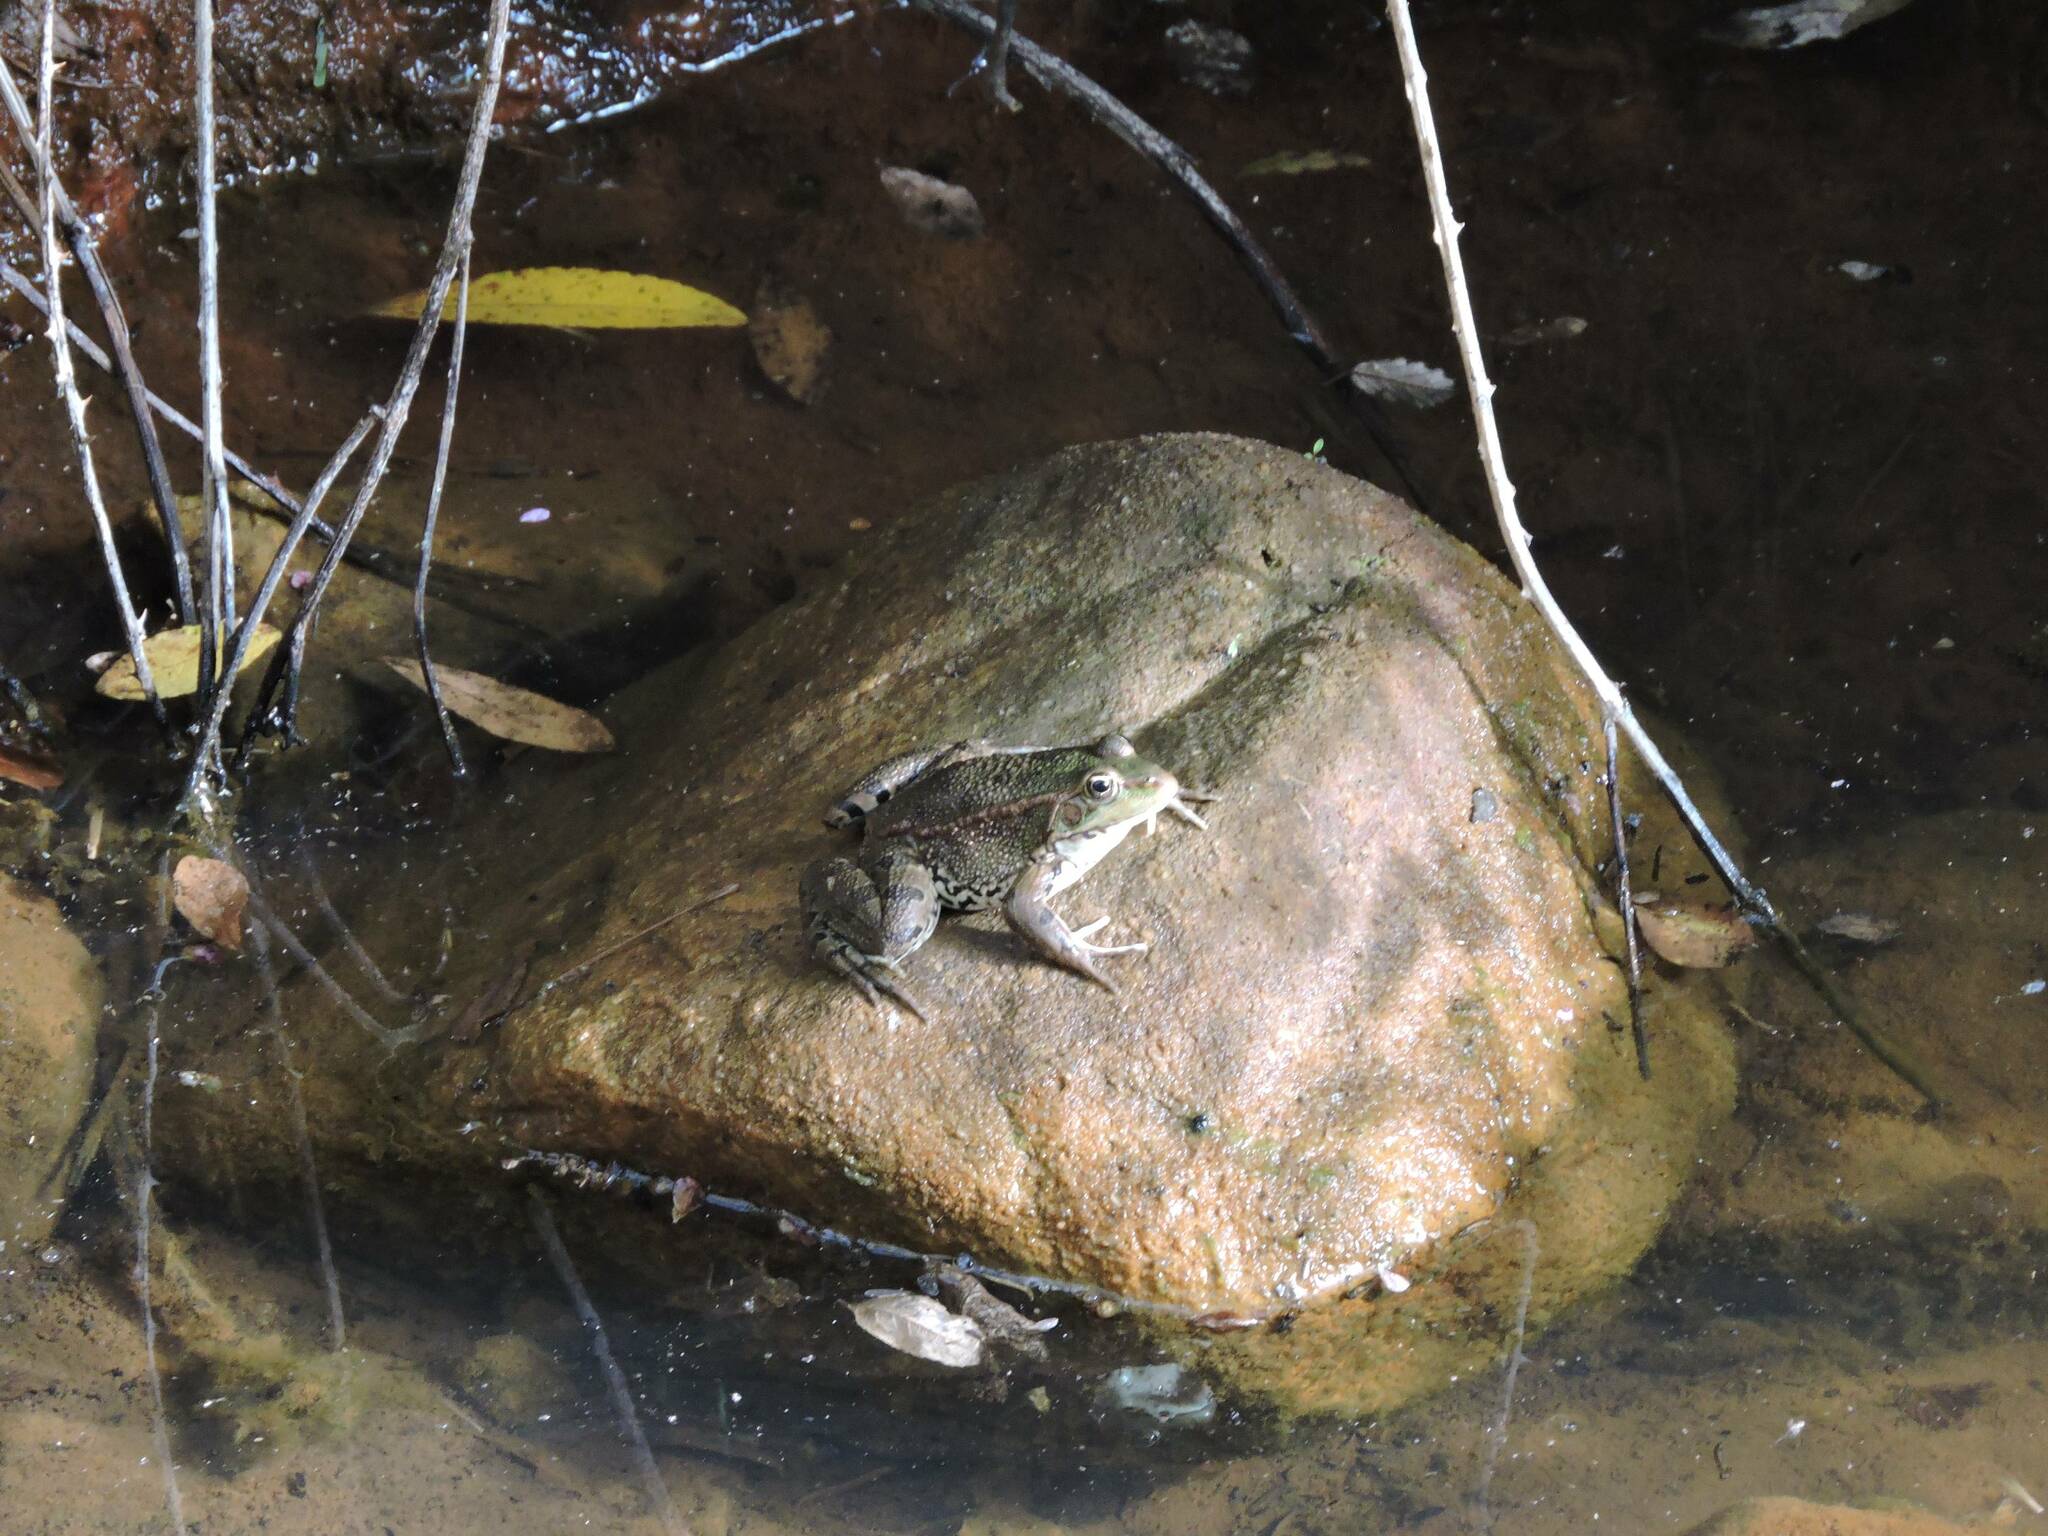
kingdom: Animalia
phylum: Chordata
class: Amphibia
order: Anura
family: Ranidae
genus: Pelophylax
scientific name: Pelophylax saharicus
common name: Sahara frog
